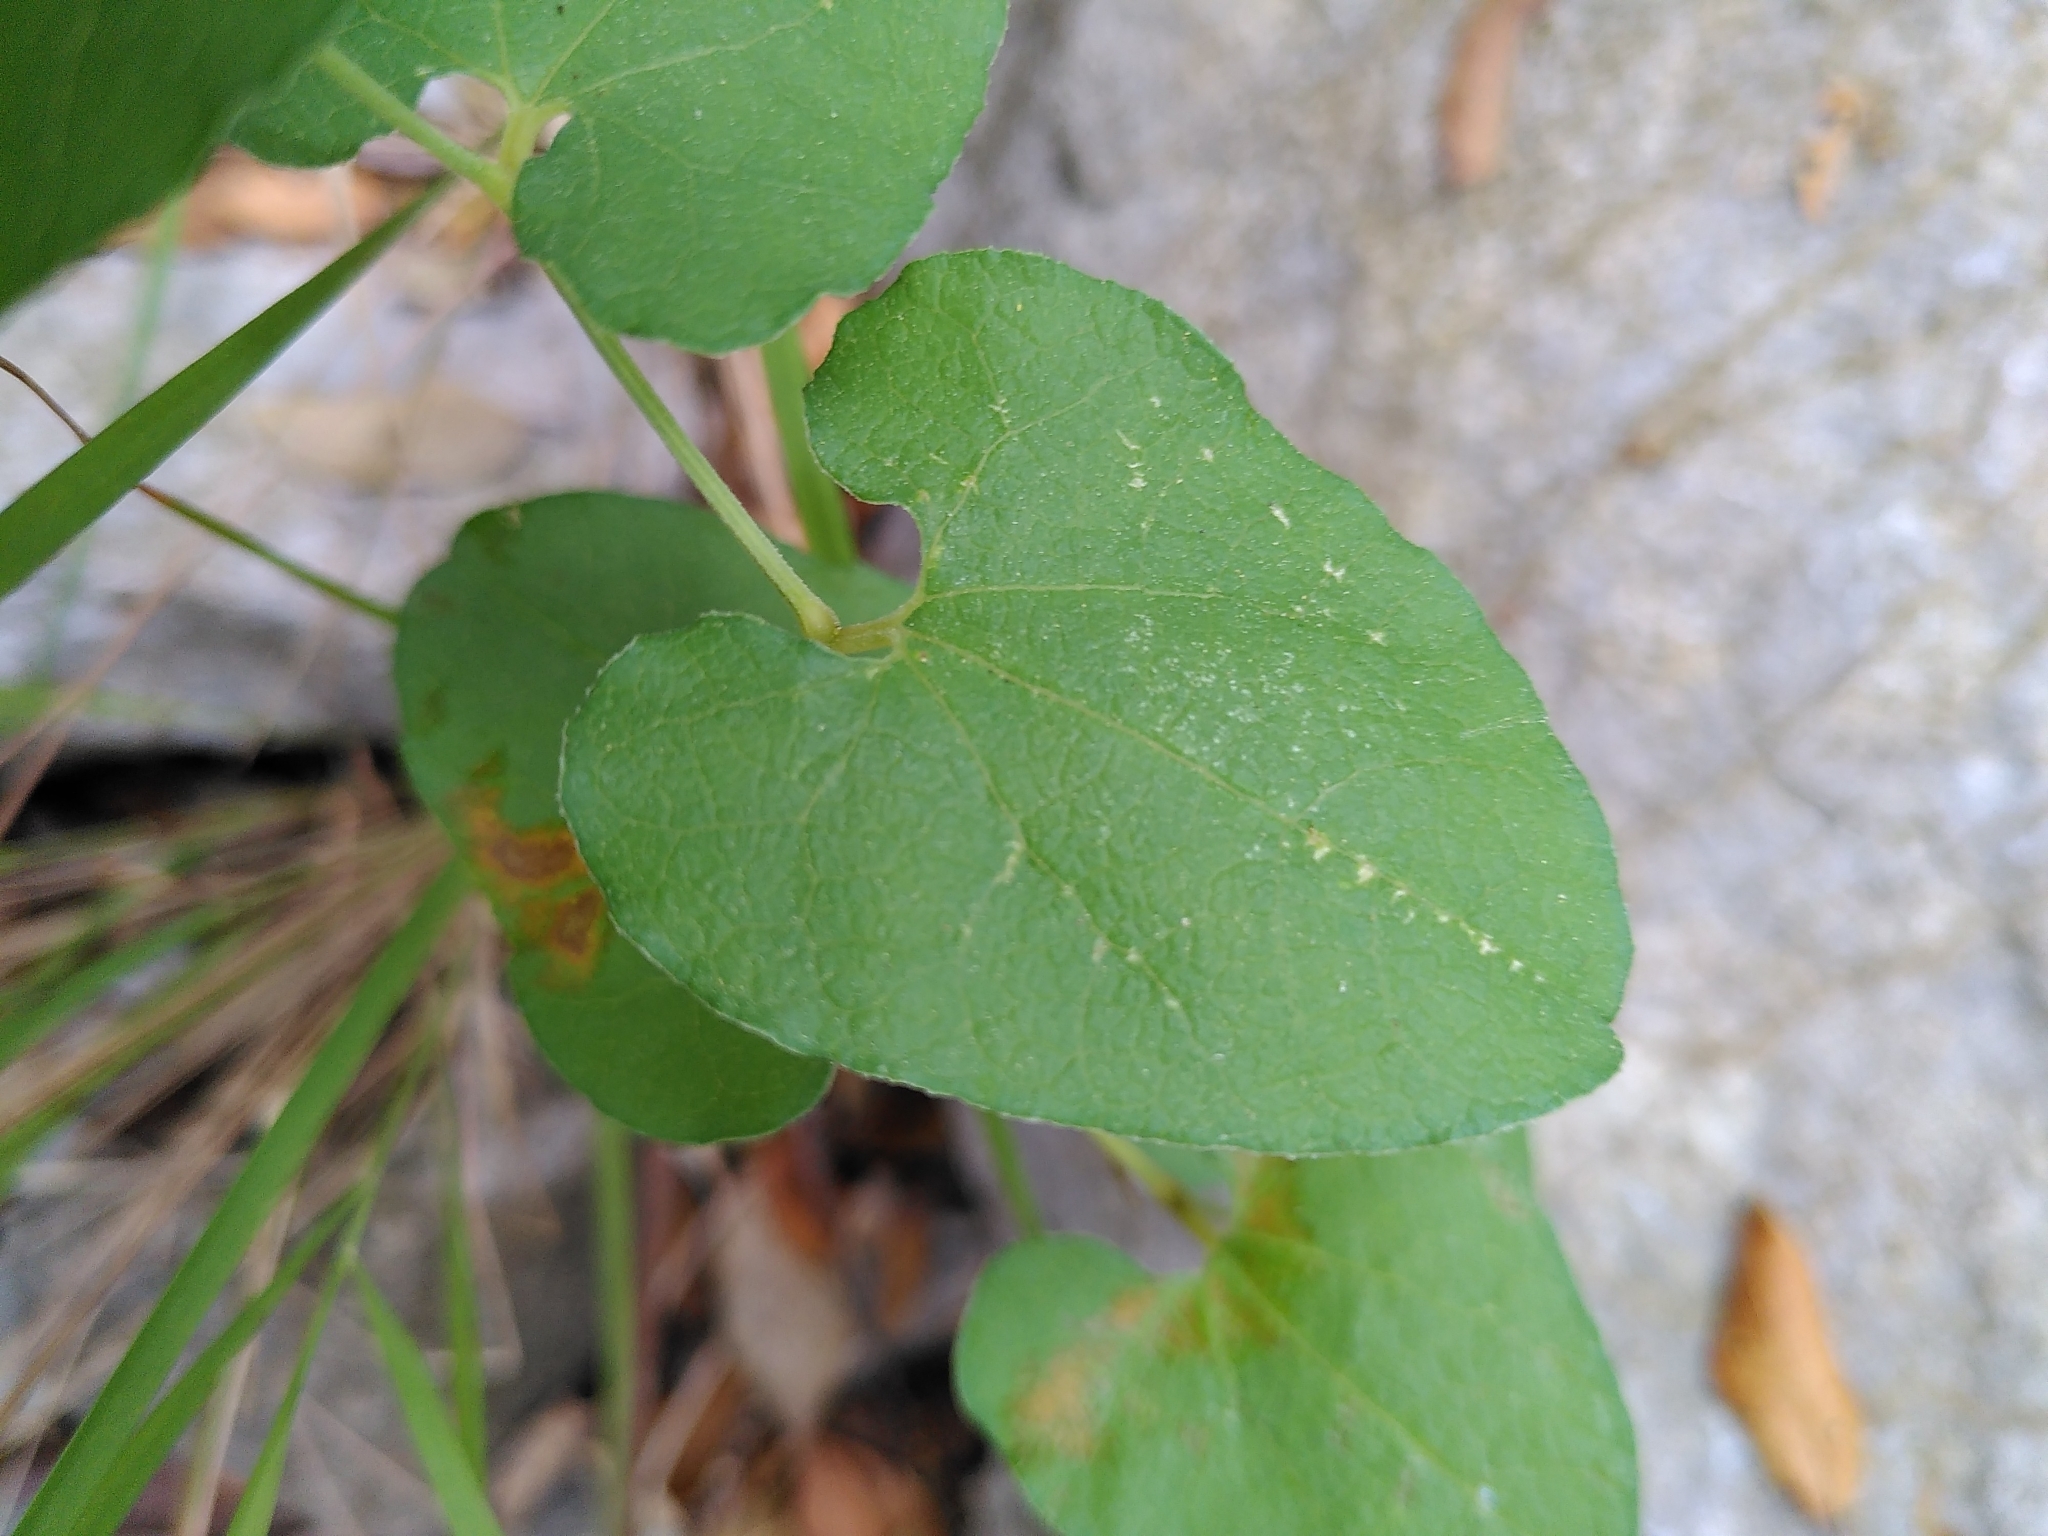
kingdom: Plantae
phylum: Tracheophyta
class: Magnoliopsida
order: Piperales
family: Aristolochiaceae
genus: Aristolochia
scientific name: Aristolochia pistolochia
